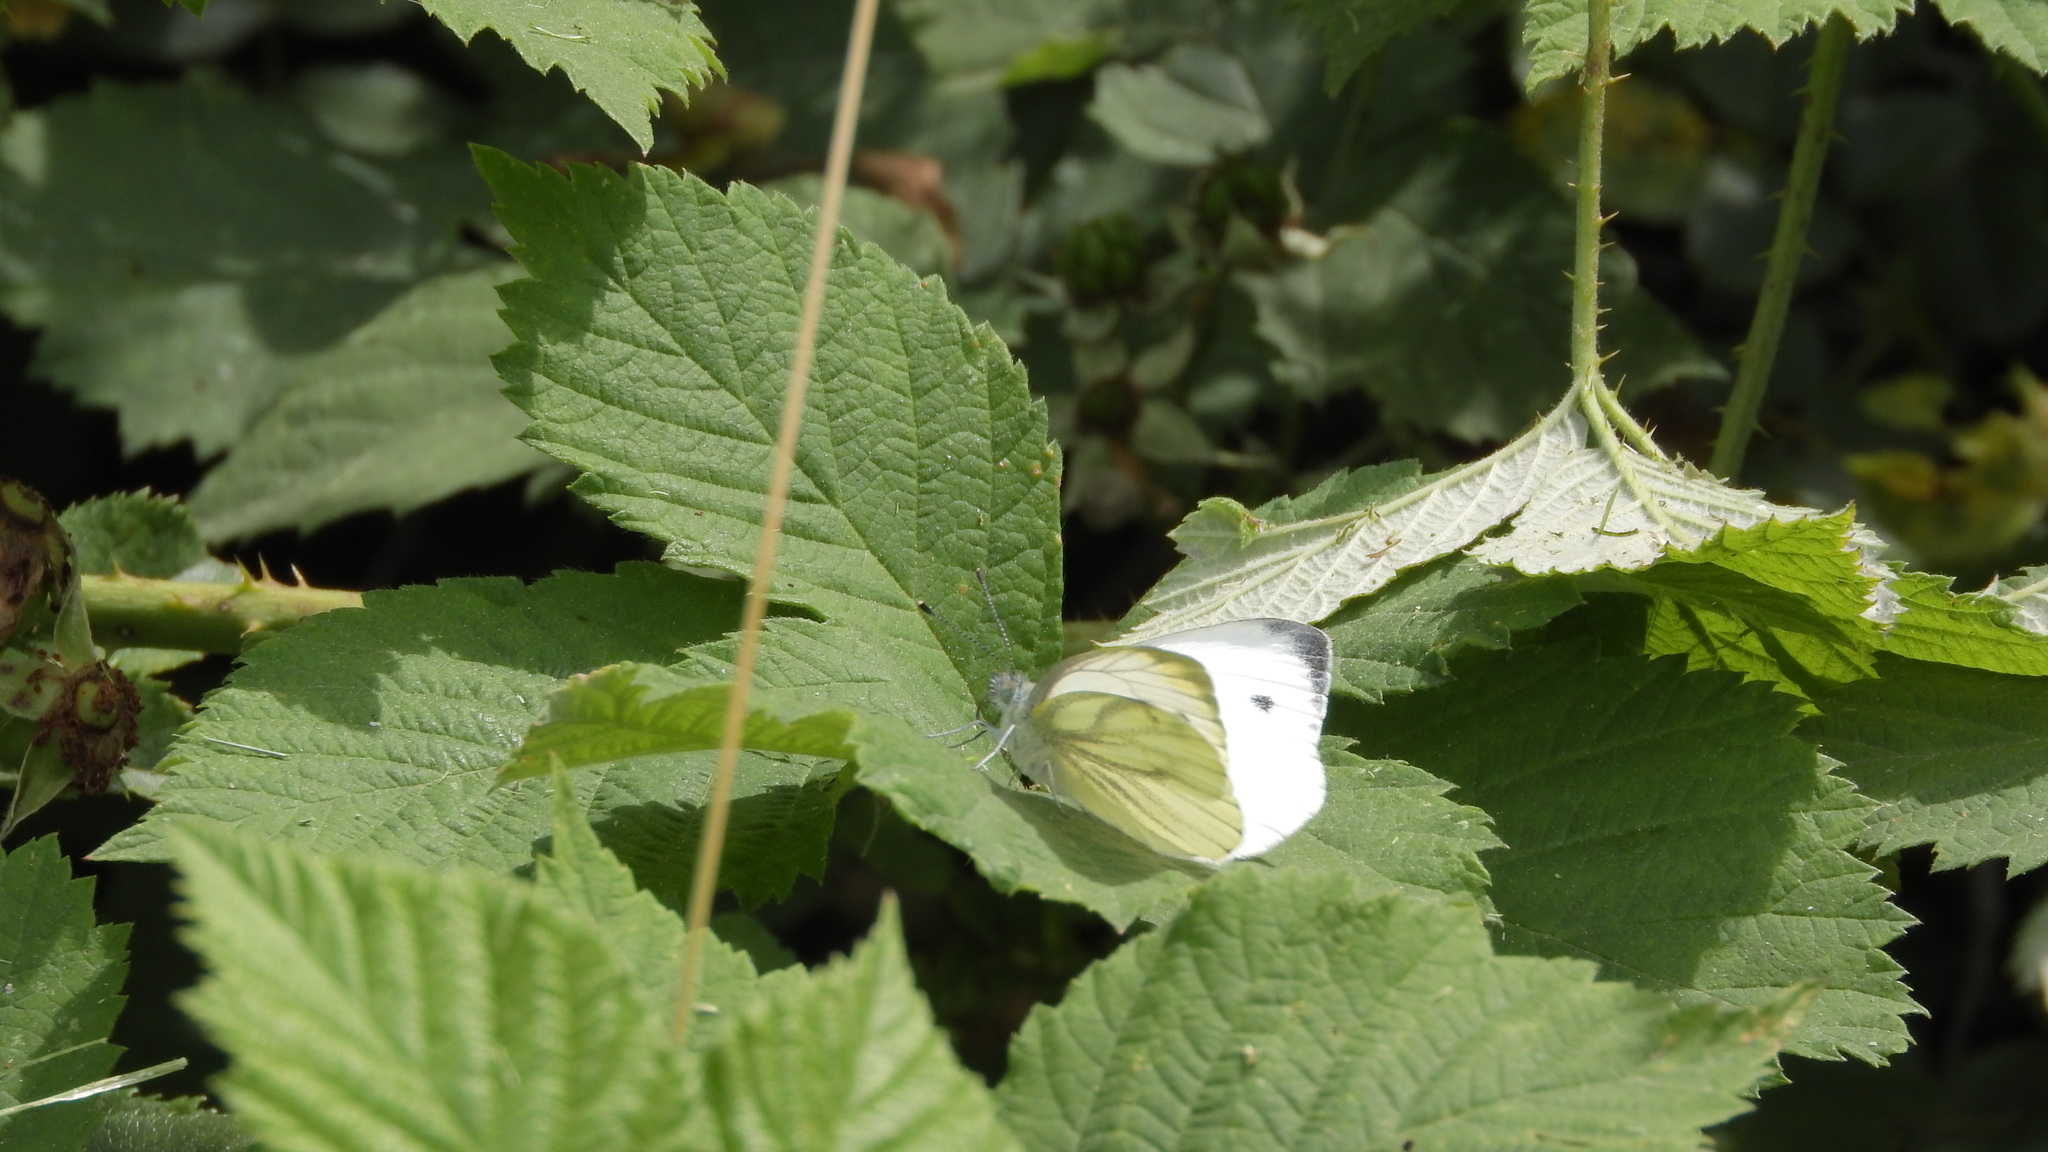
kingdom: Animalia
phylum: Arthropoda
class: Insecta
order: Lepidoptera
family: Pieridae
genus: Pieris
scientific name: Pieris napi
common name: Green-veined white
